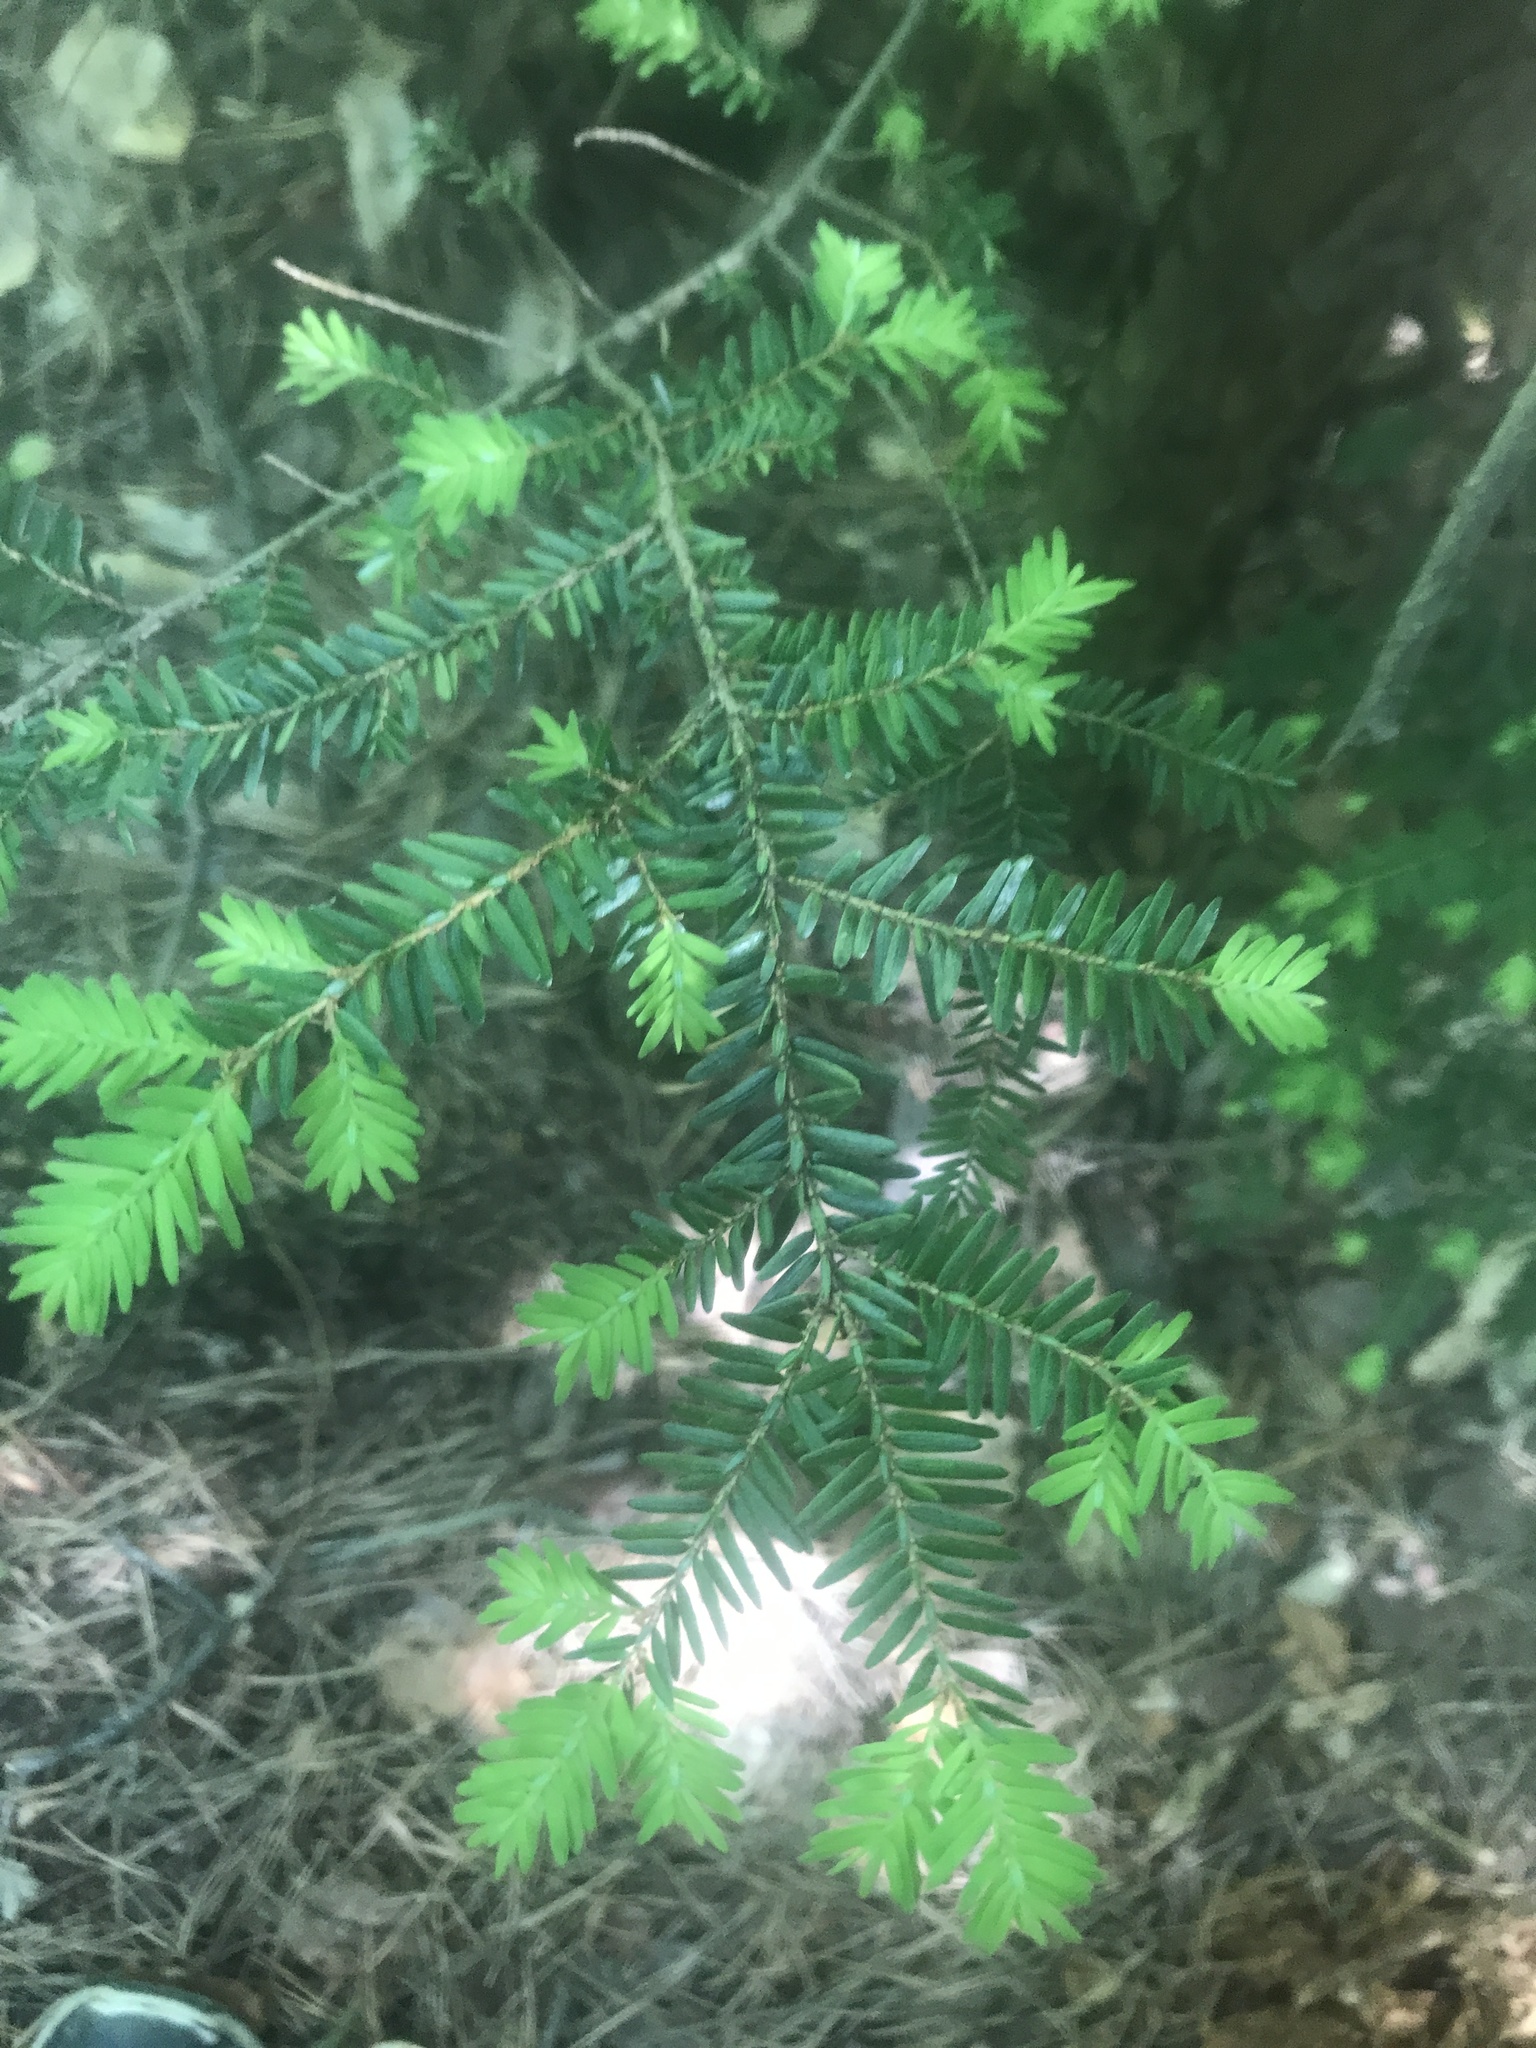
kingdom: Plantae
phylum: Tracheophyta
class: Pinopsida
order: Pinales
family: Pinaceae
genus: Tsuga
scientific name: Tsuga canadensis
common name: Eastern hemlock
